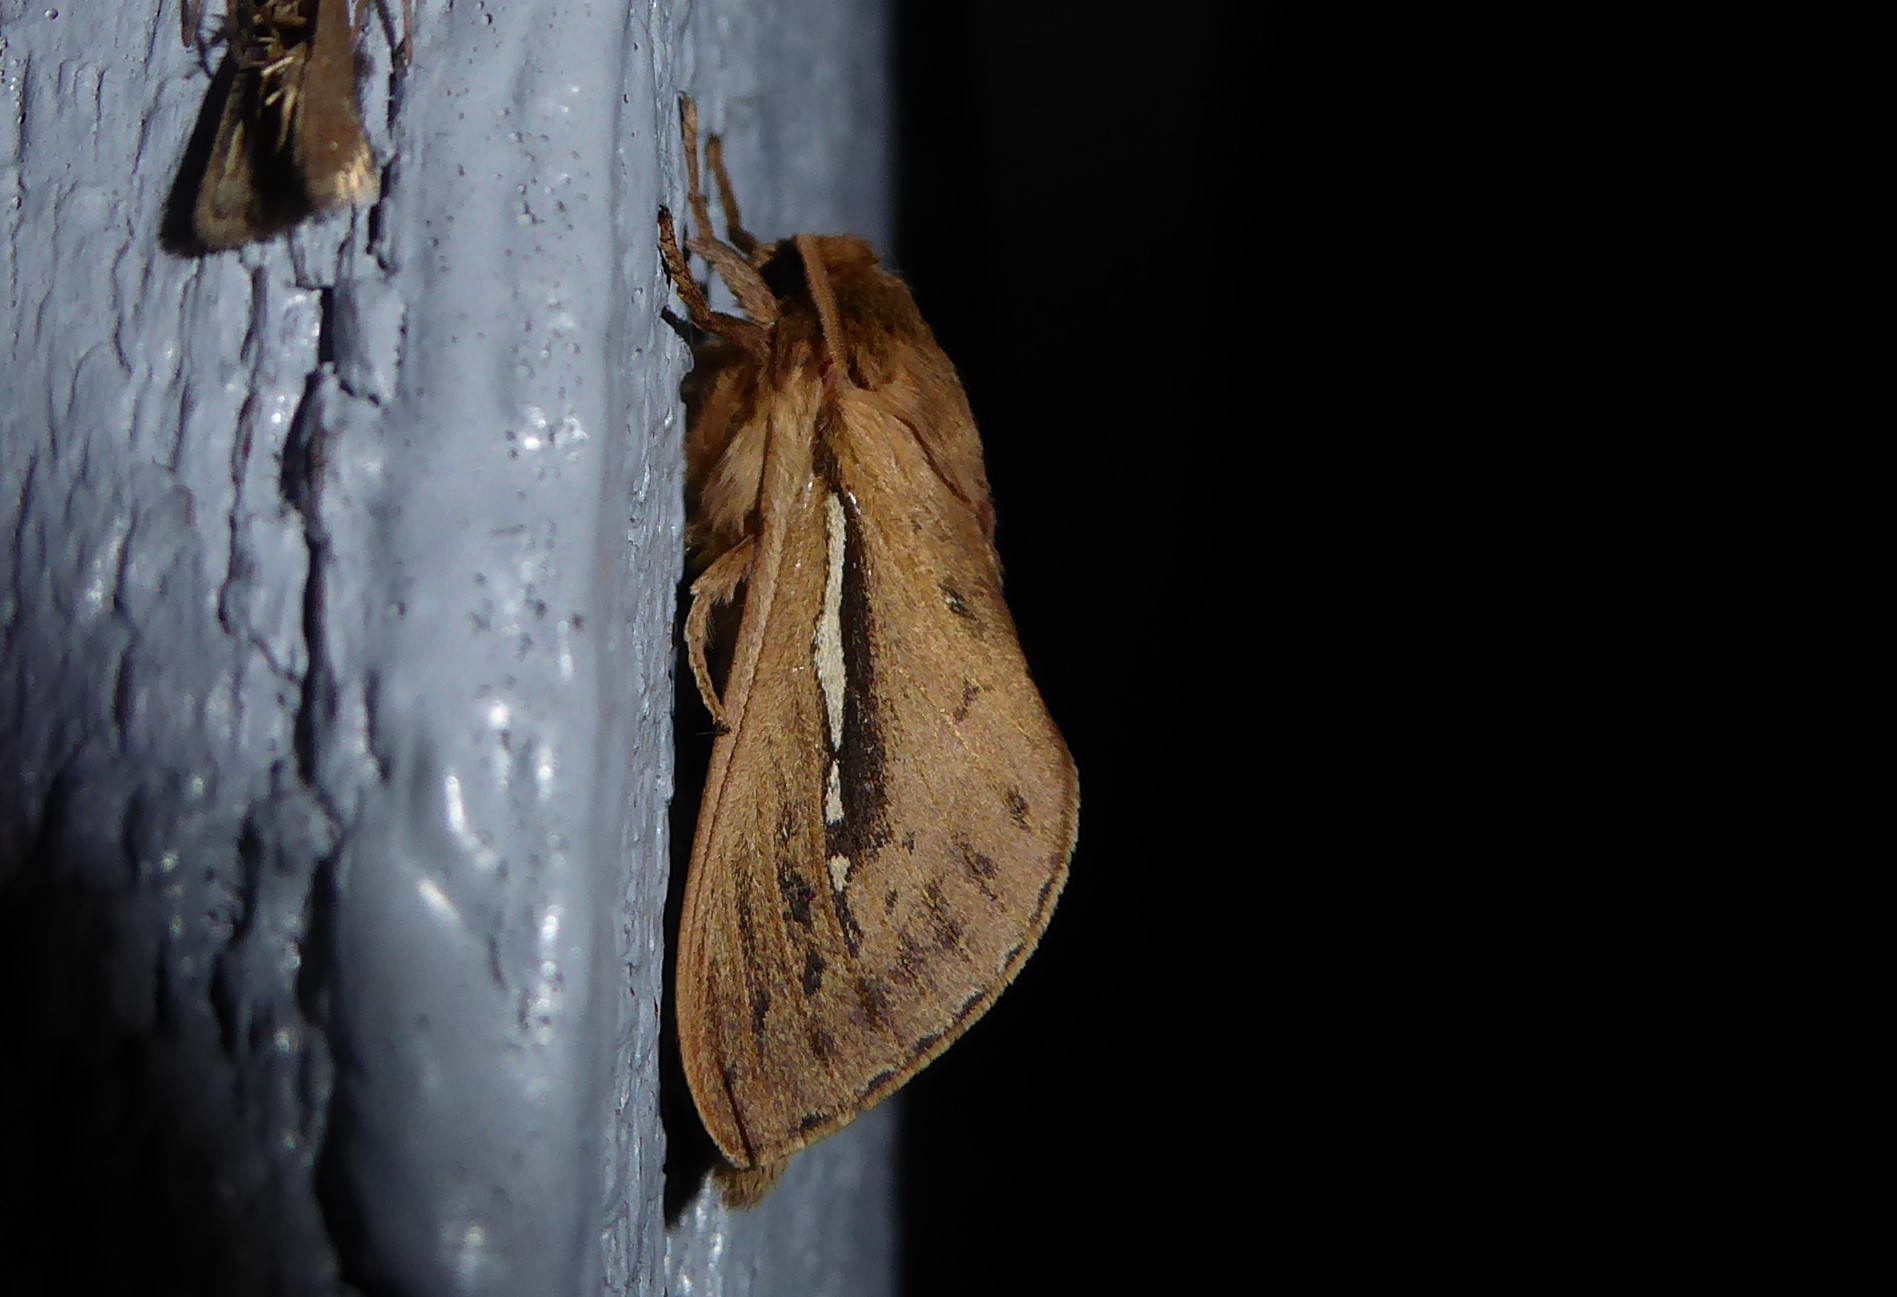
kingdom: Animalia
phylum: Arthropoda
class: Insecta
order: Lepidoptera
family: Hepialidae
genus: Wiseana
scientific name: Wiseana umbraculatus
